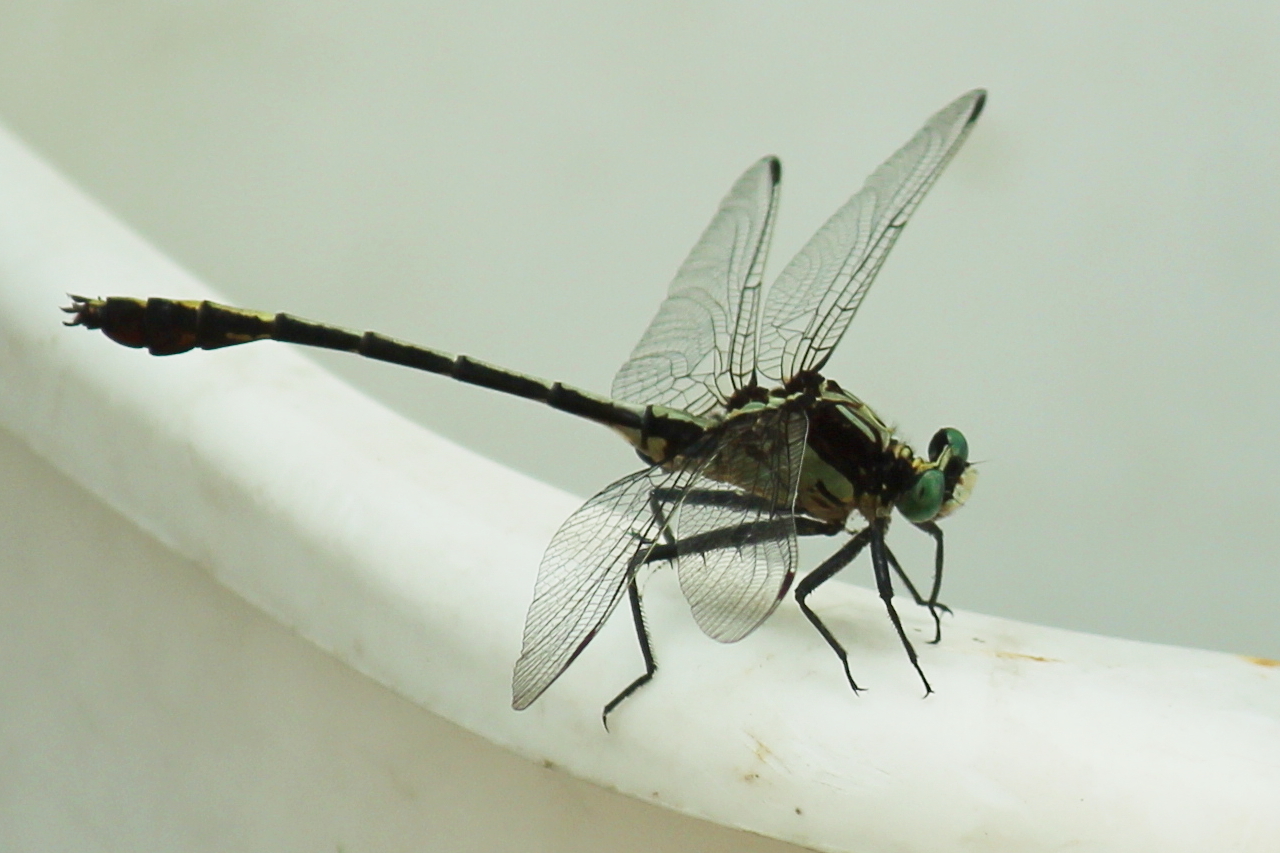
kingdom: Animalia
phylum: Arthropoda
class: Insecta
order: Odonata
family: Gomphidae
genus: Dromogomphus
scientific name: Dromogomphus spinosus
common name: Black-shouldered spinyleg
